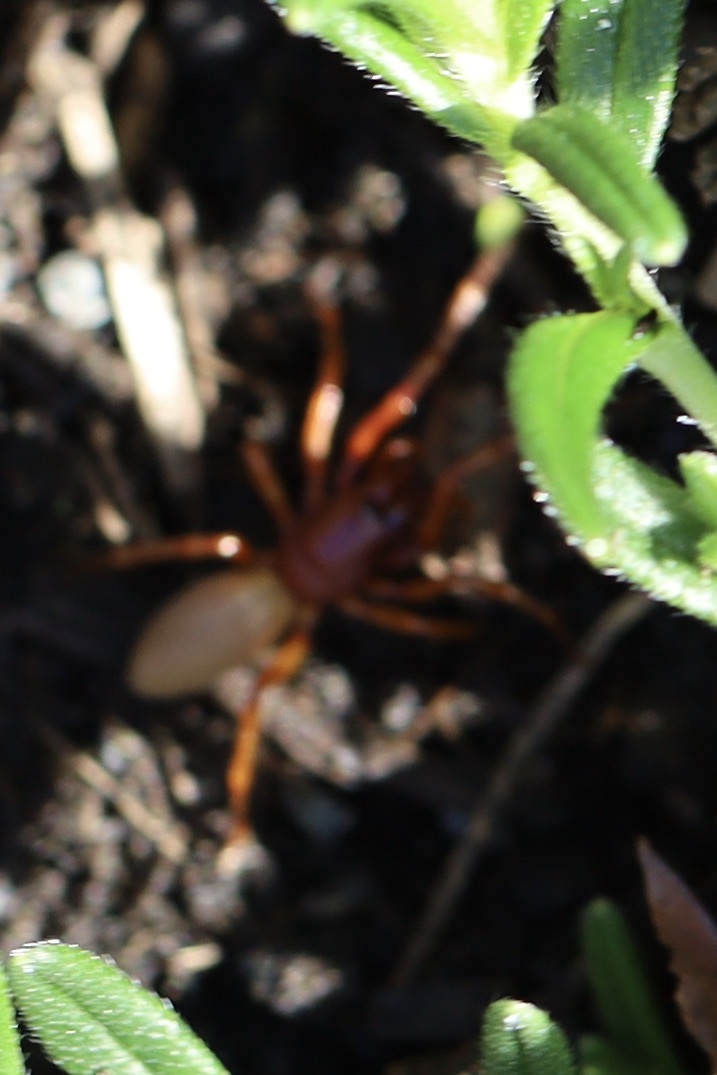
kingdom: Animalia
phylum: Arthropoda
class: Arachnida
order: Araneae
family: Dysderidae
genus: Dysdera
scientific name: Dysdera crocata
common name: Woodlouse spider
